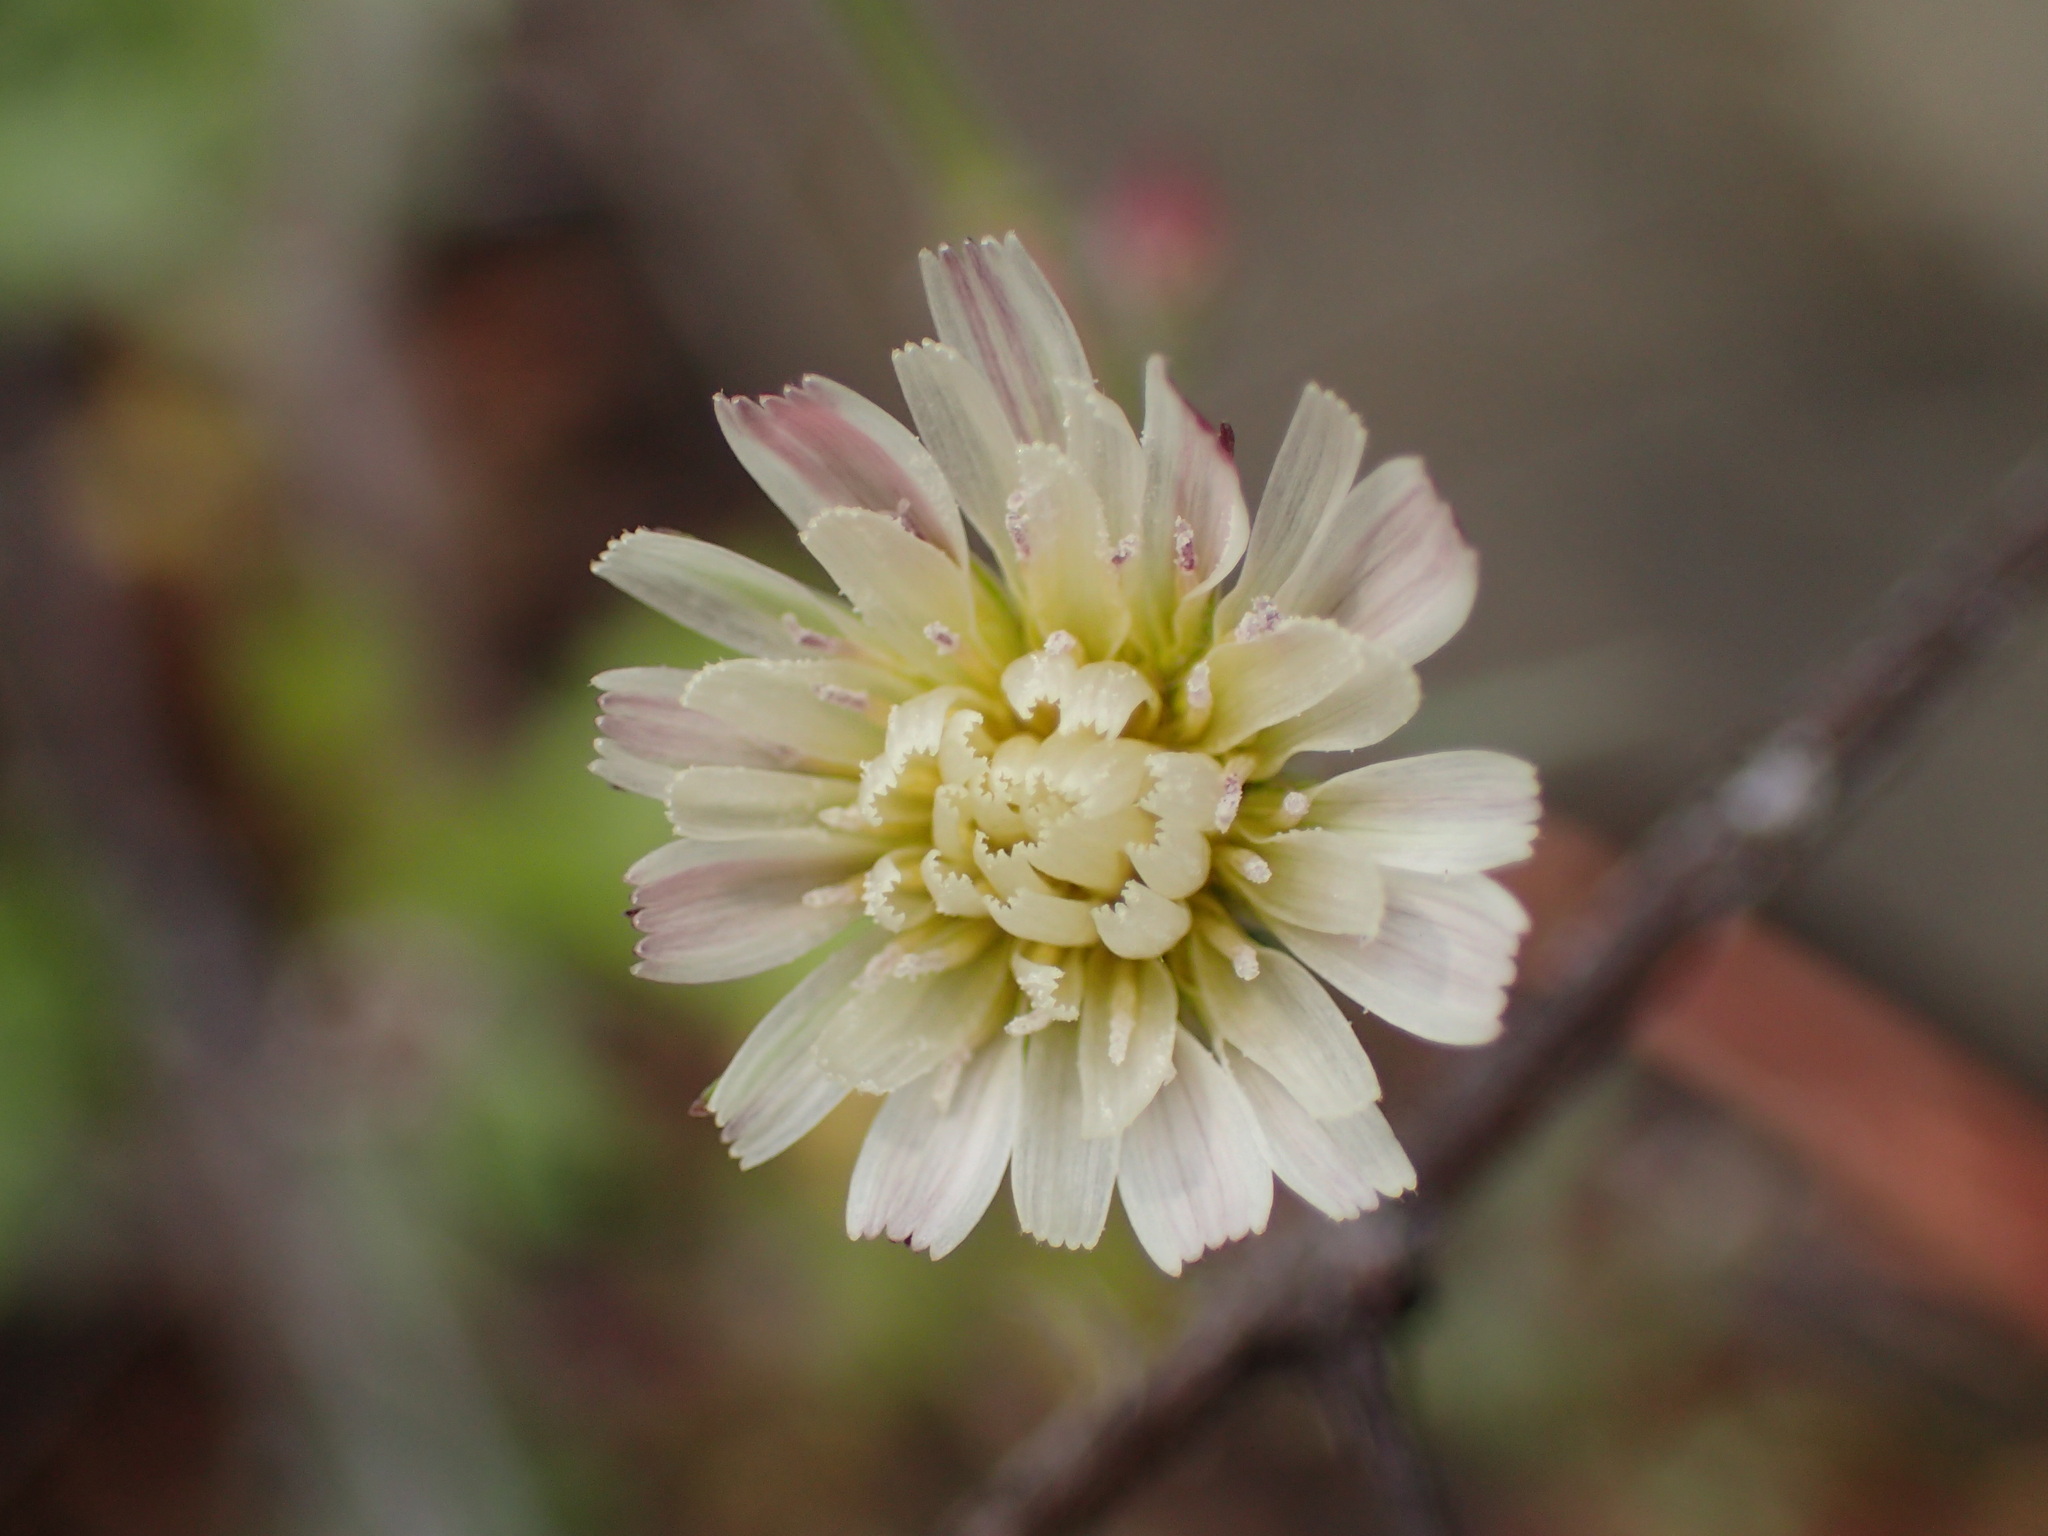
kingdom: Plantae
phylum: Tracheophyta
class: Magnoliopsida
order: Asterales
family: Asteraceae
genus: Rafinesquia
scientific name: Rafinesquia californica
